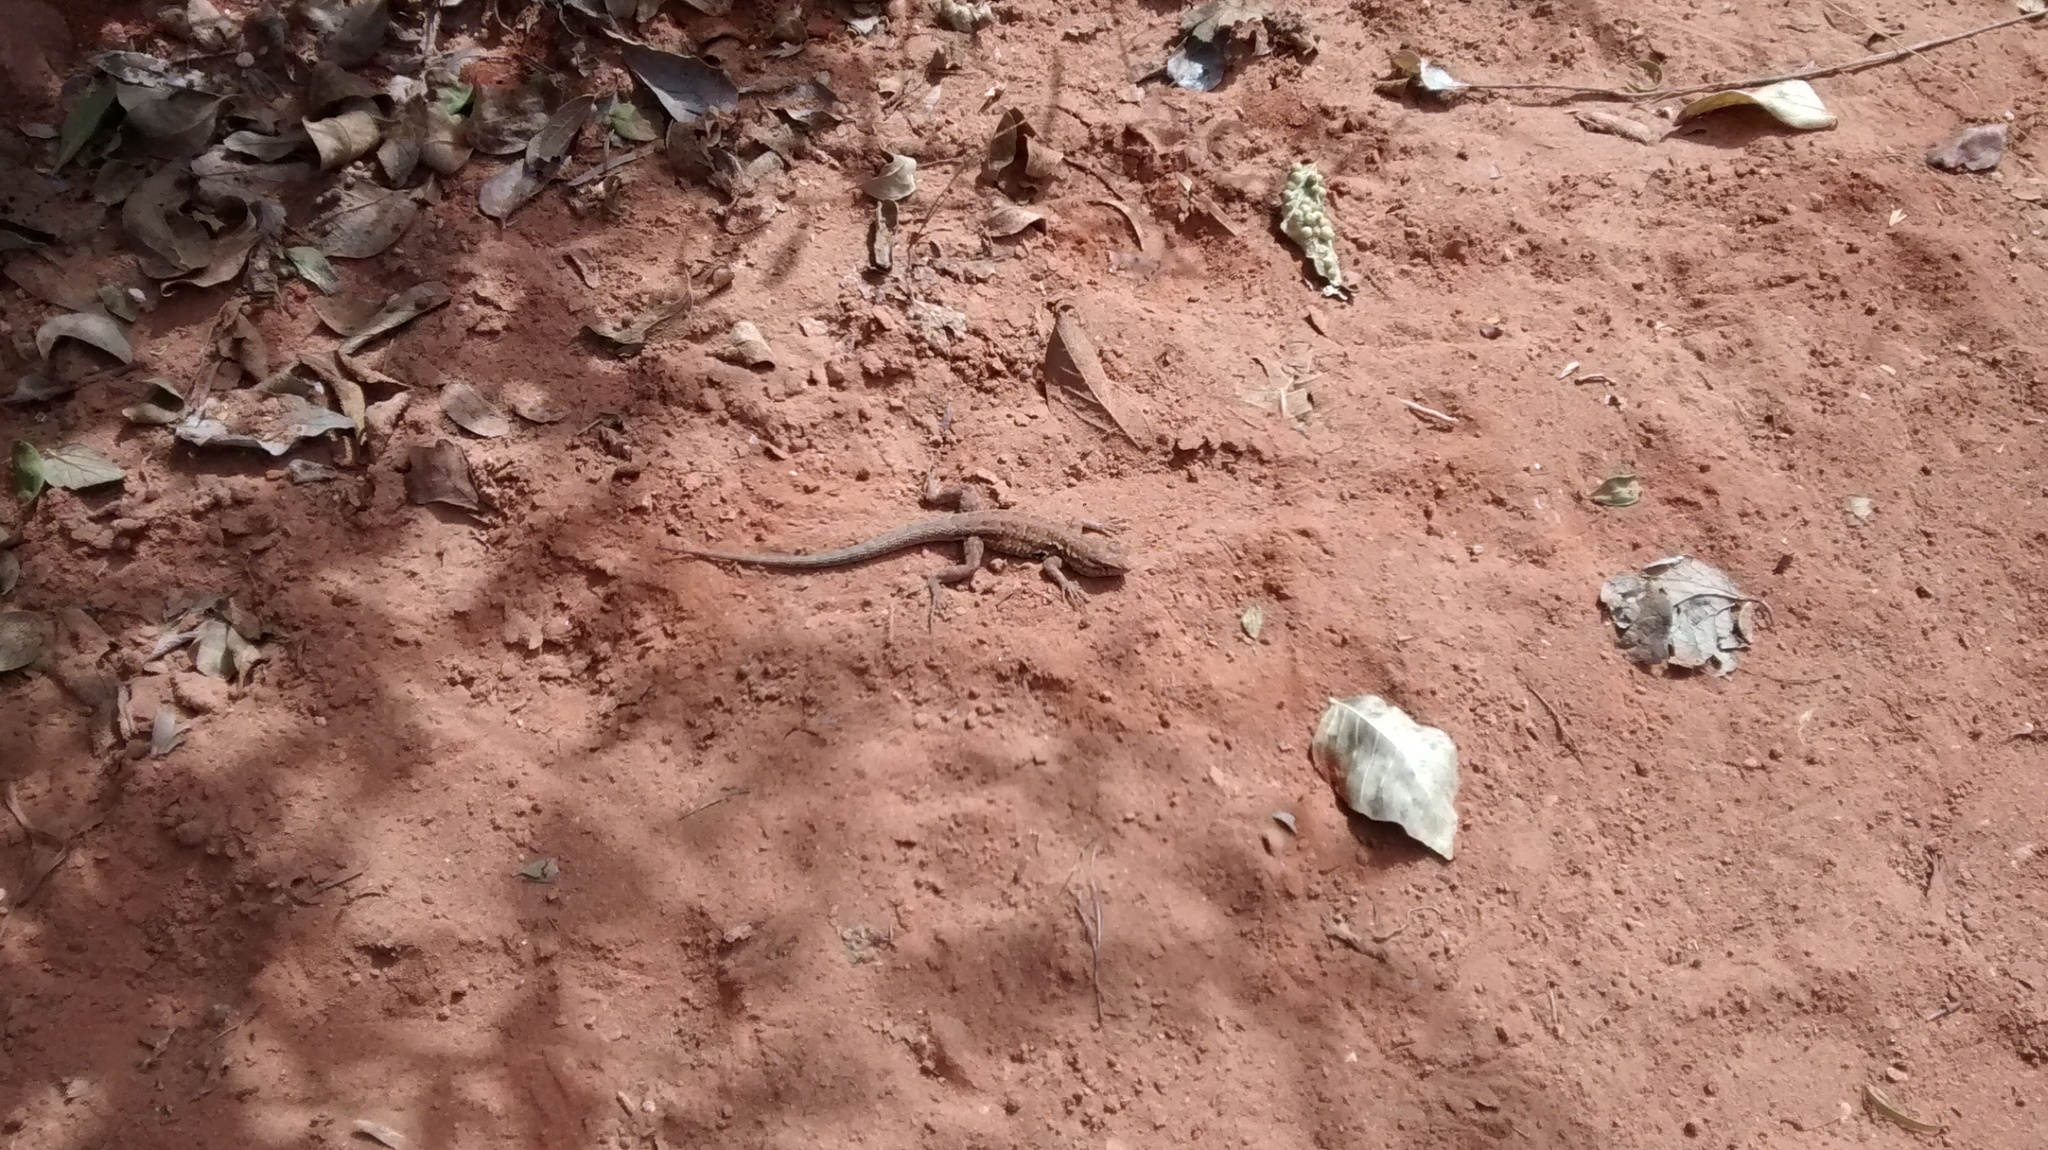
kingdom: Animalia
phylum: Chordata
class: Squamata
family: Phrynosomatidae
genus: Uta
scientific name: Uta stansburiana
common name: Side-blotched lizard
